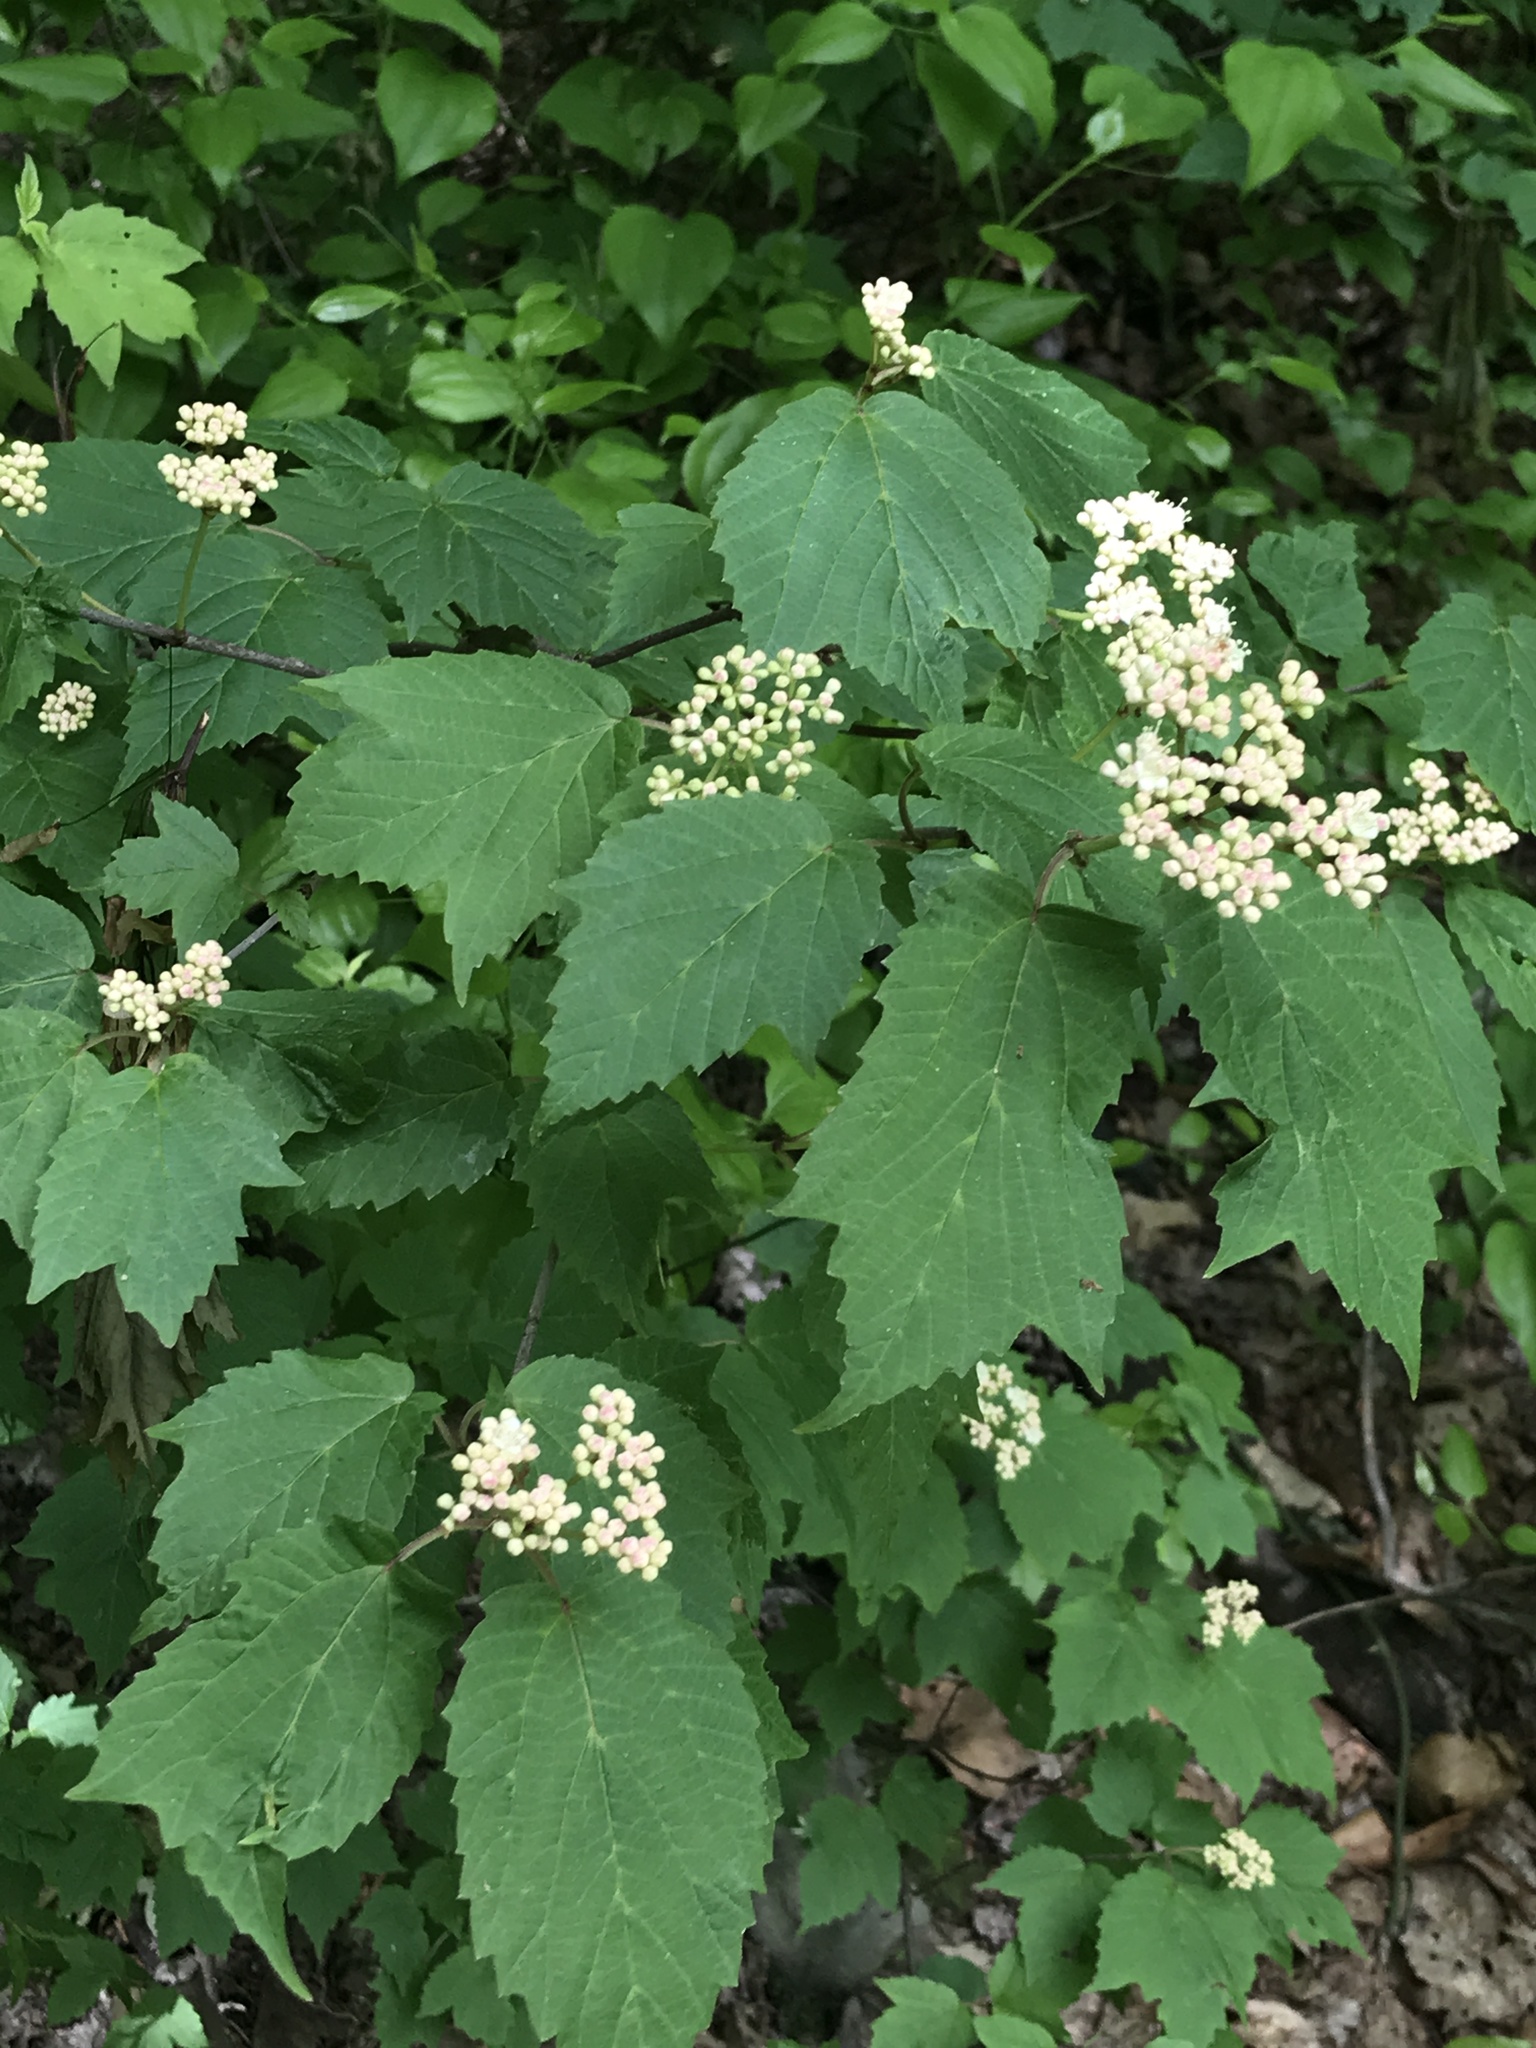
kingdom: Plantae
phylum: Tracheophyta
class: Magnoliopsida
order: Dipsacales
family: Viburnaceae
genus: Viburnum
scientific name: Viburnum acerifolium
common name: Dockmackie
